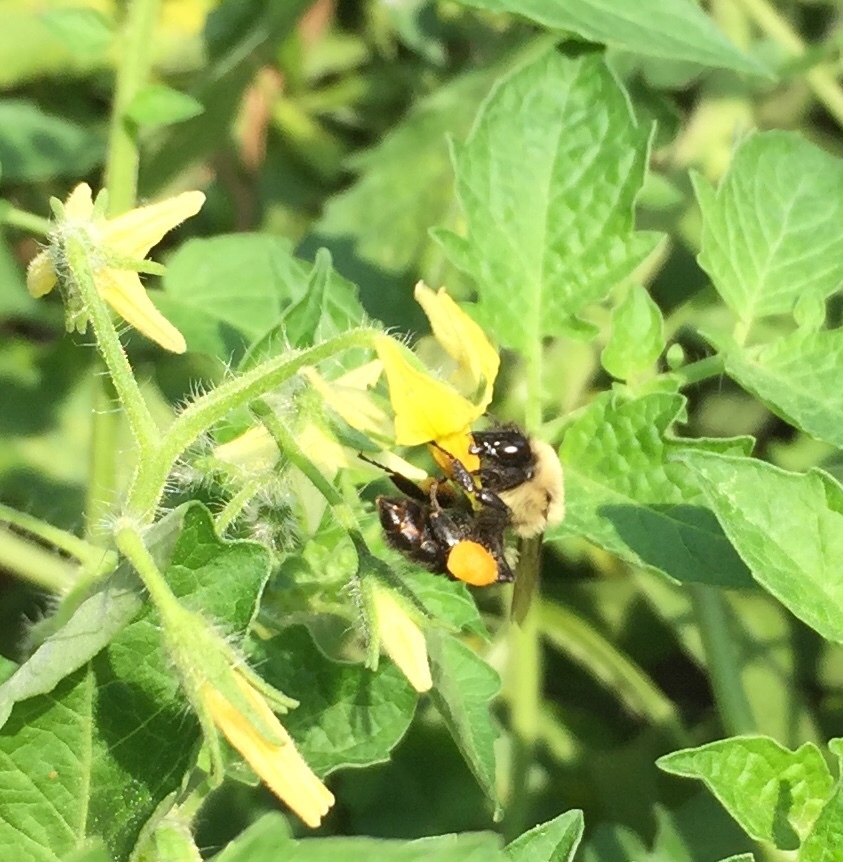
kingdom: Animalia
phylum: Arthropoda
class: Insecta
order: Hymenoptera
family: Apidae
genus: Bombus
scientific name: Bombus impatiens
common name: Common eastern bumble bee
